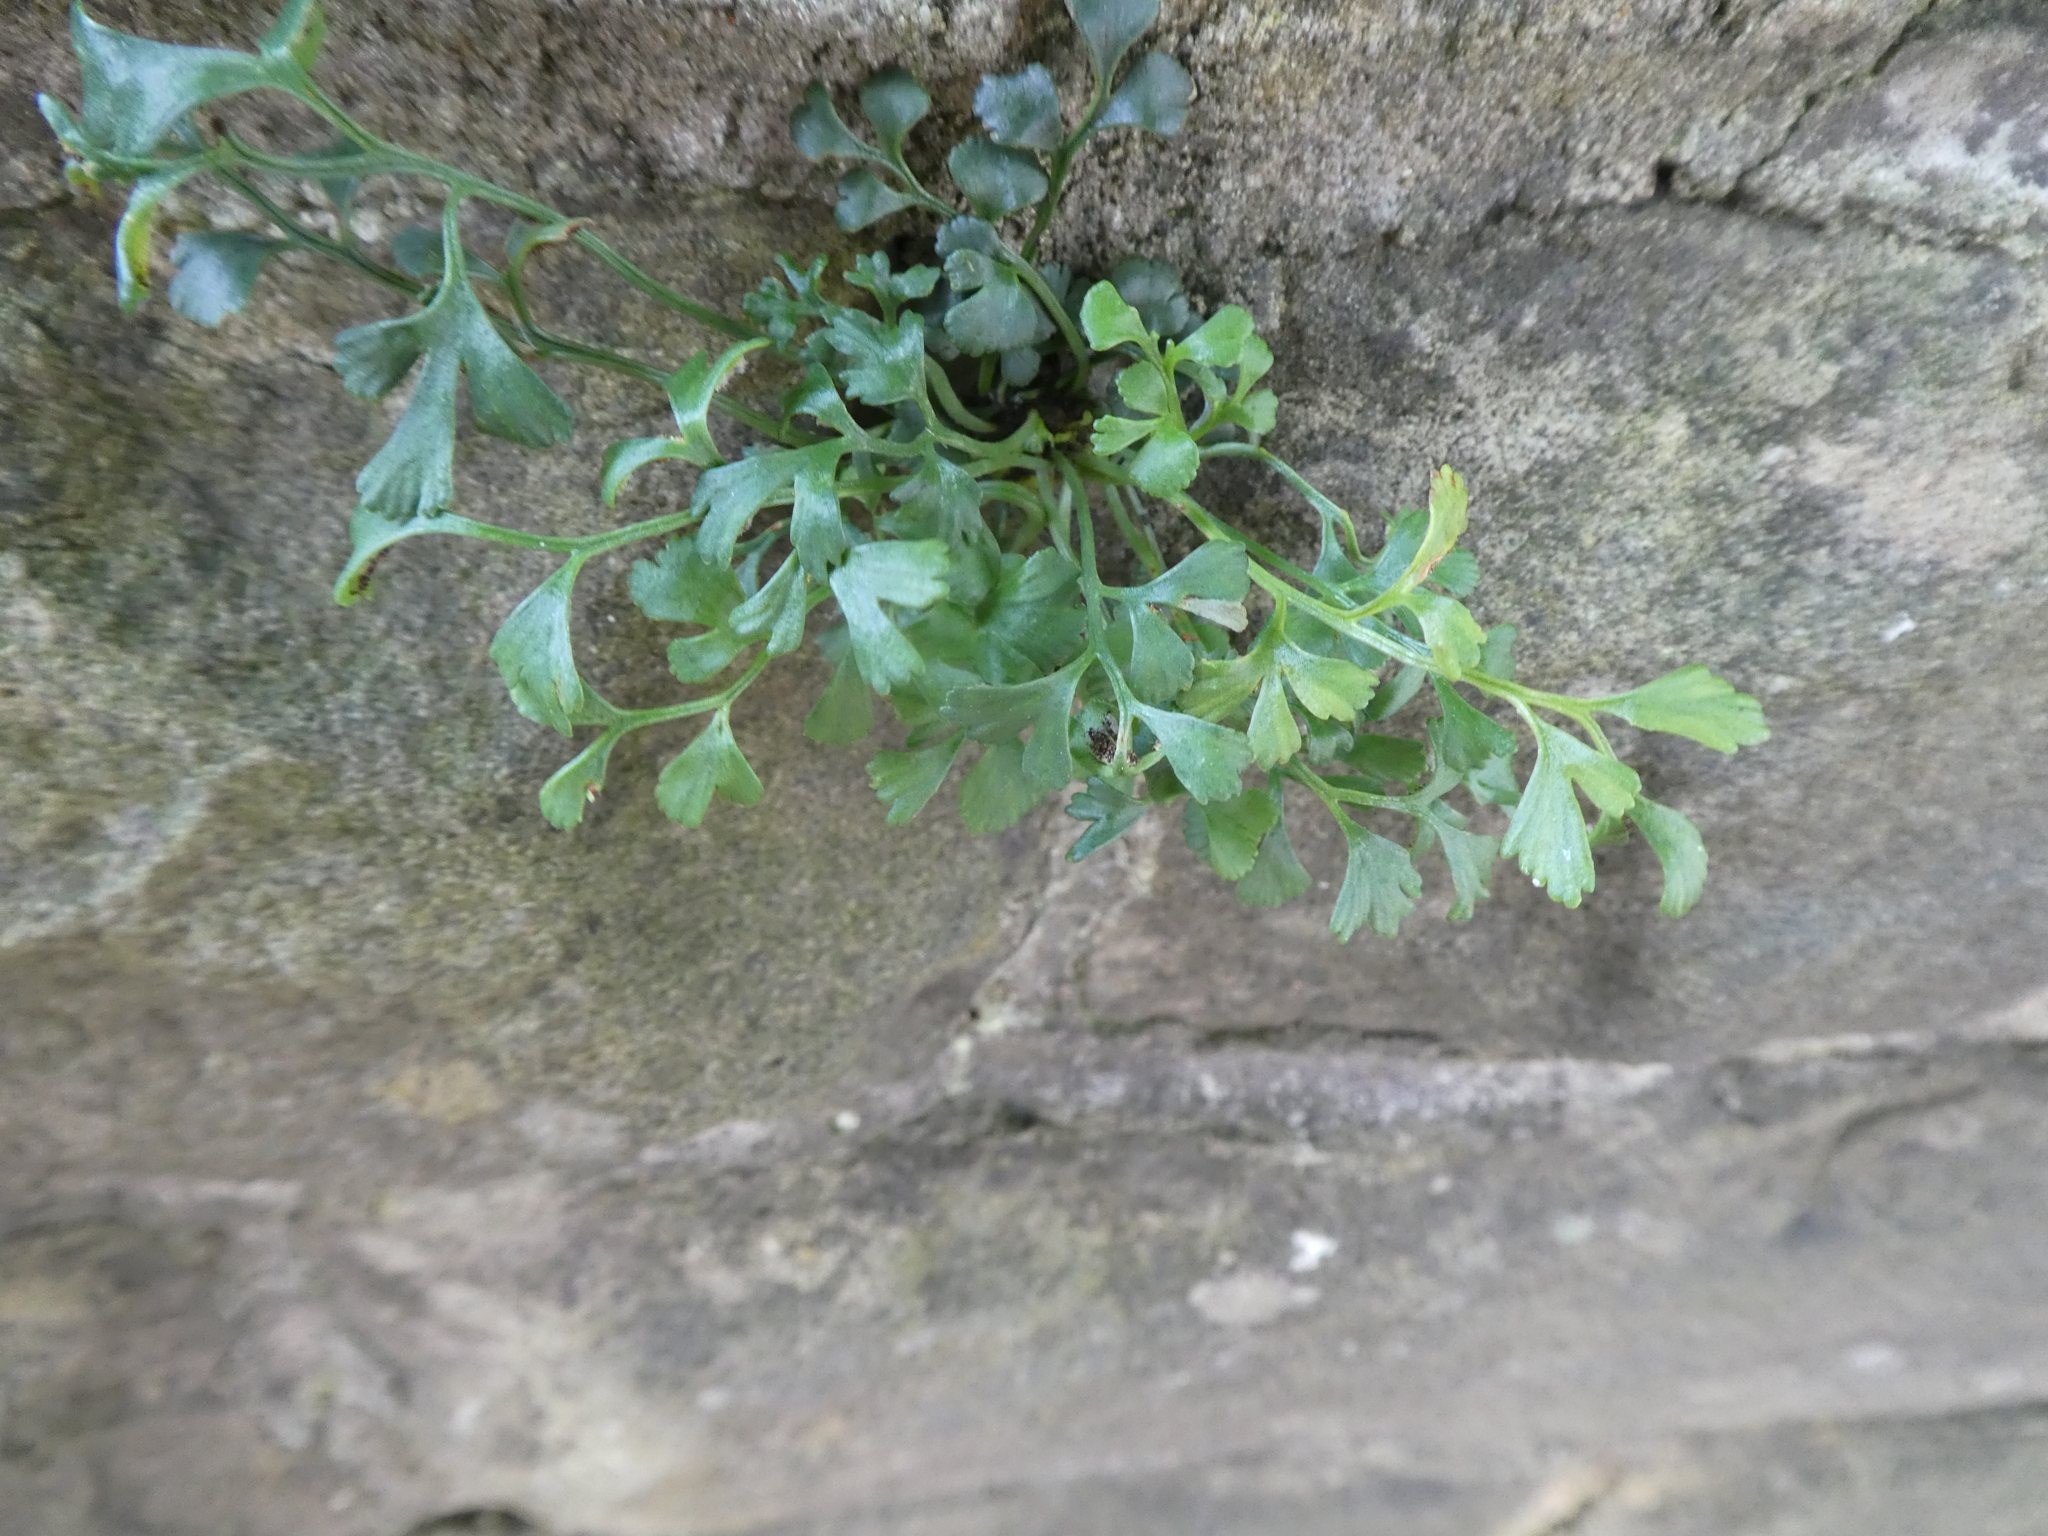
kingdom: Plantae
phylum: Tracheophyta
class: Polypodiopsida
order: Polypodiales
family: Aspleniaceae
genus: Asplenium
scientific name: Asplenium ruta-muraria
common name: Wall-rue
